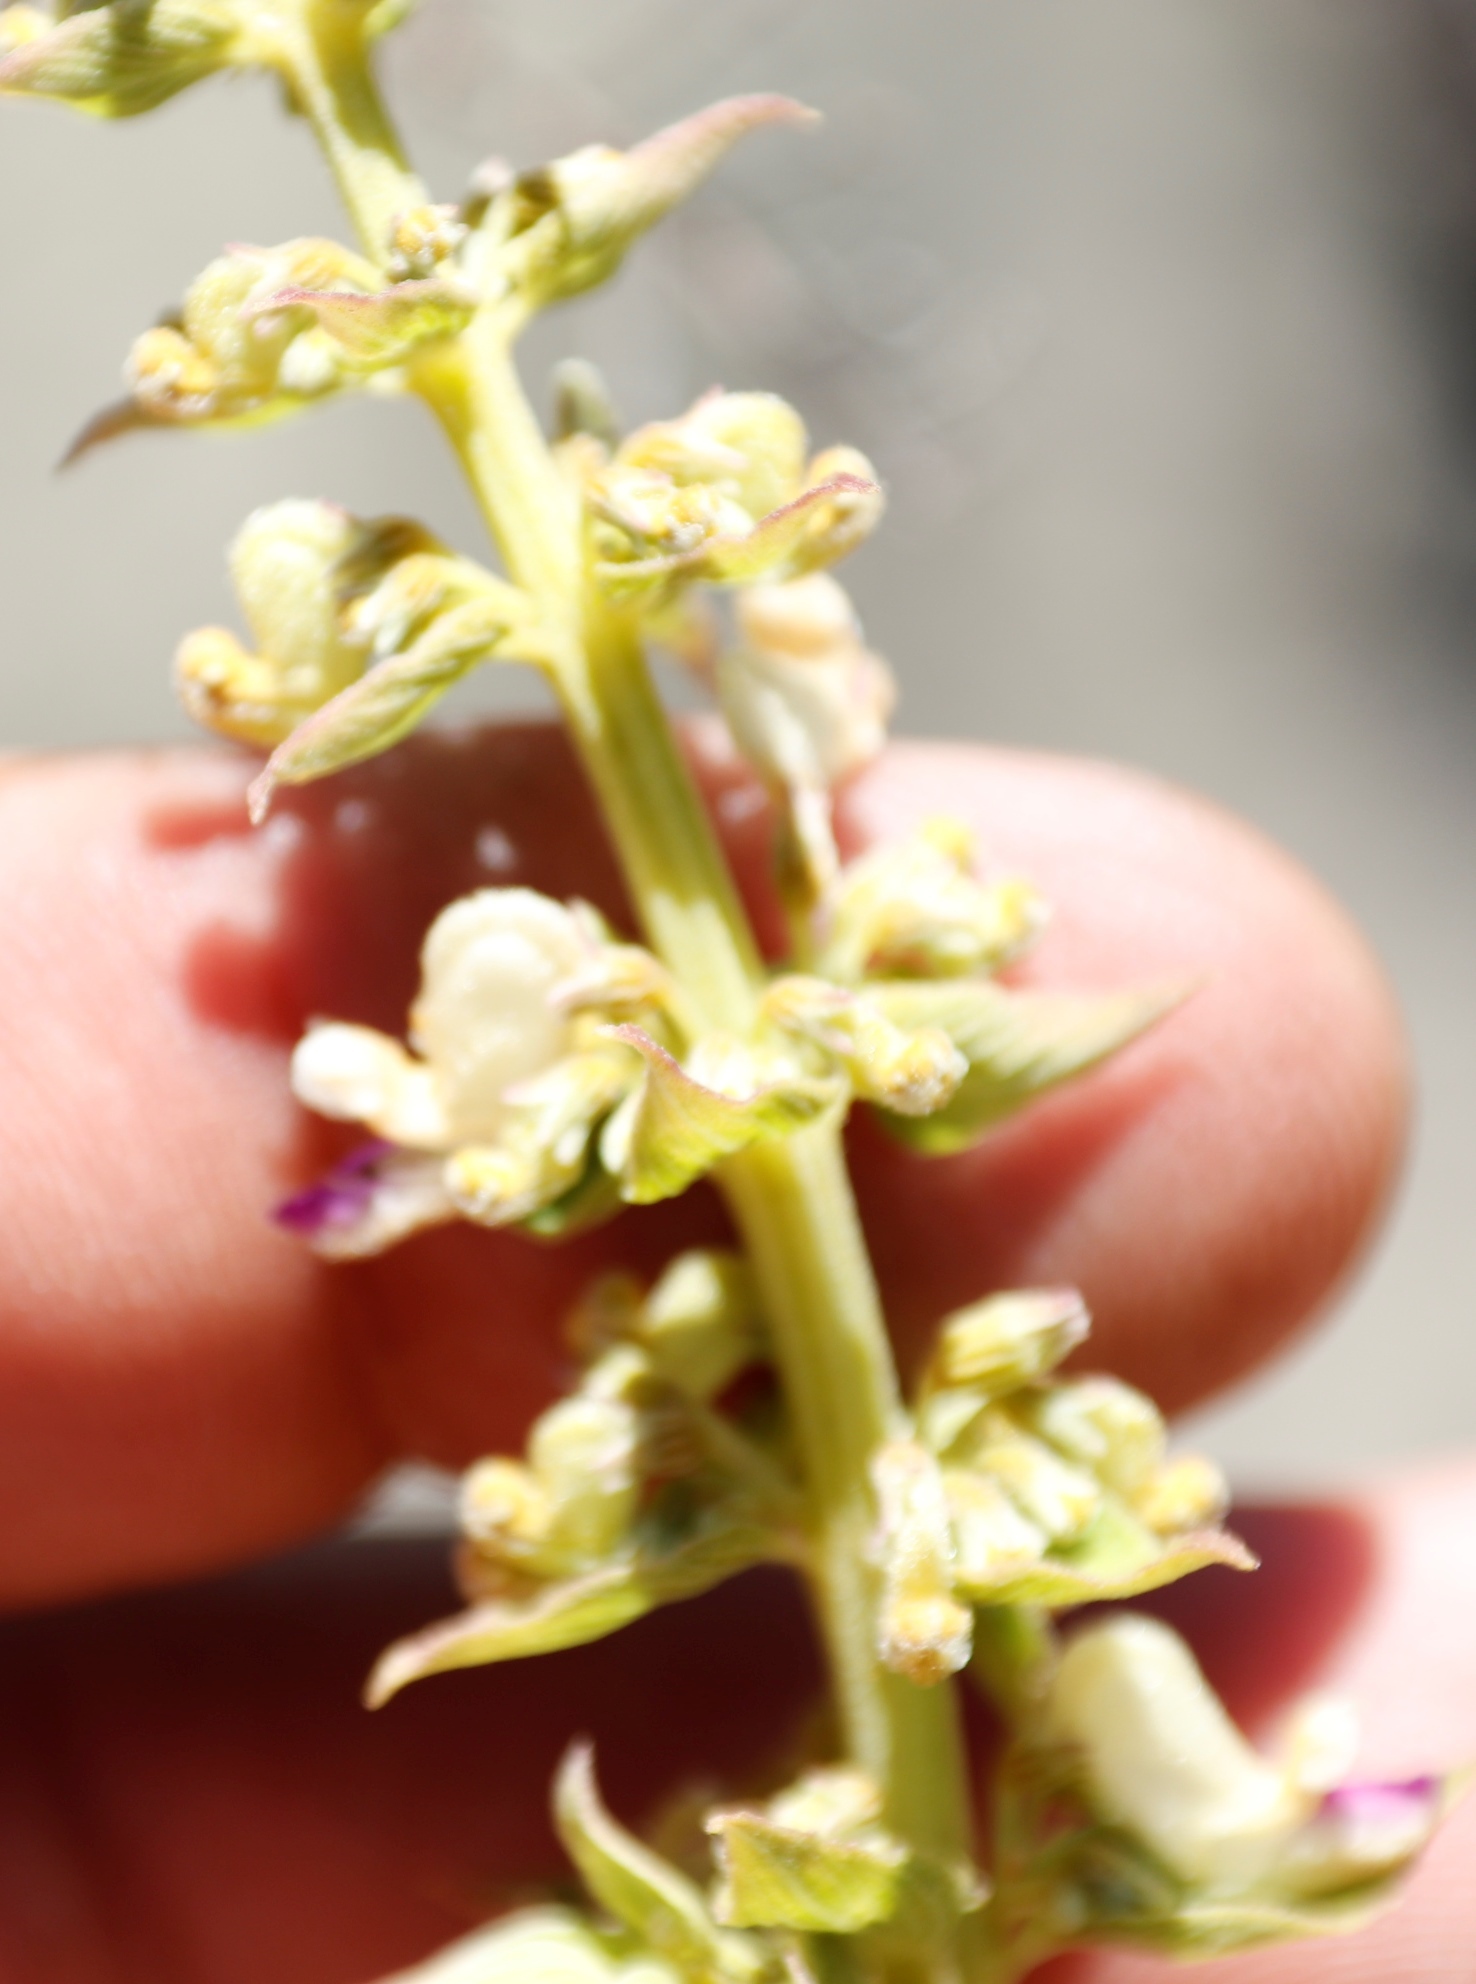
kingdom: Plantae
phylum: Tracheophyta
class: Magnoliopsida
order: Lamiales
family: Lamiaceae
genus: Coleus
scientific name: Coleus calycinus
